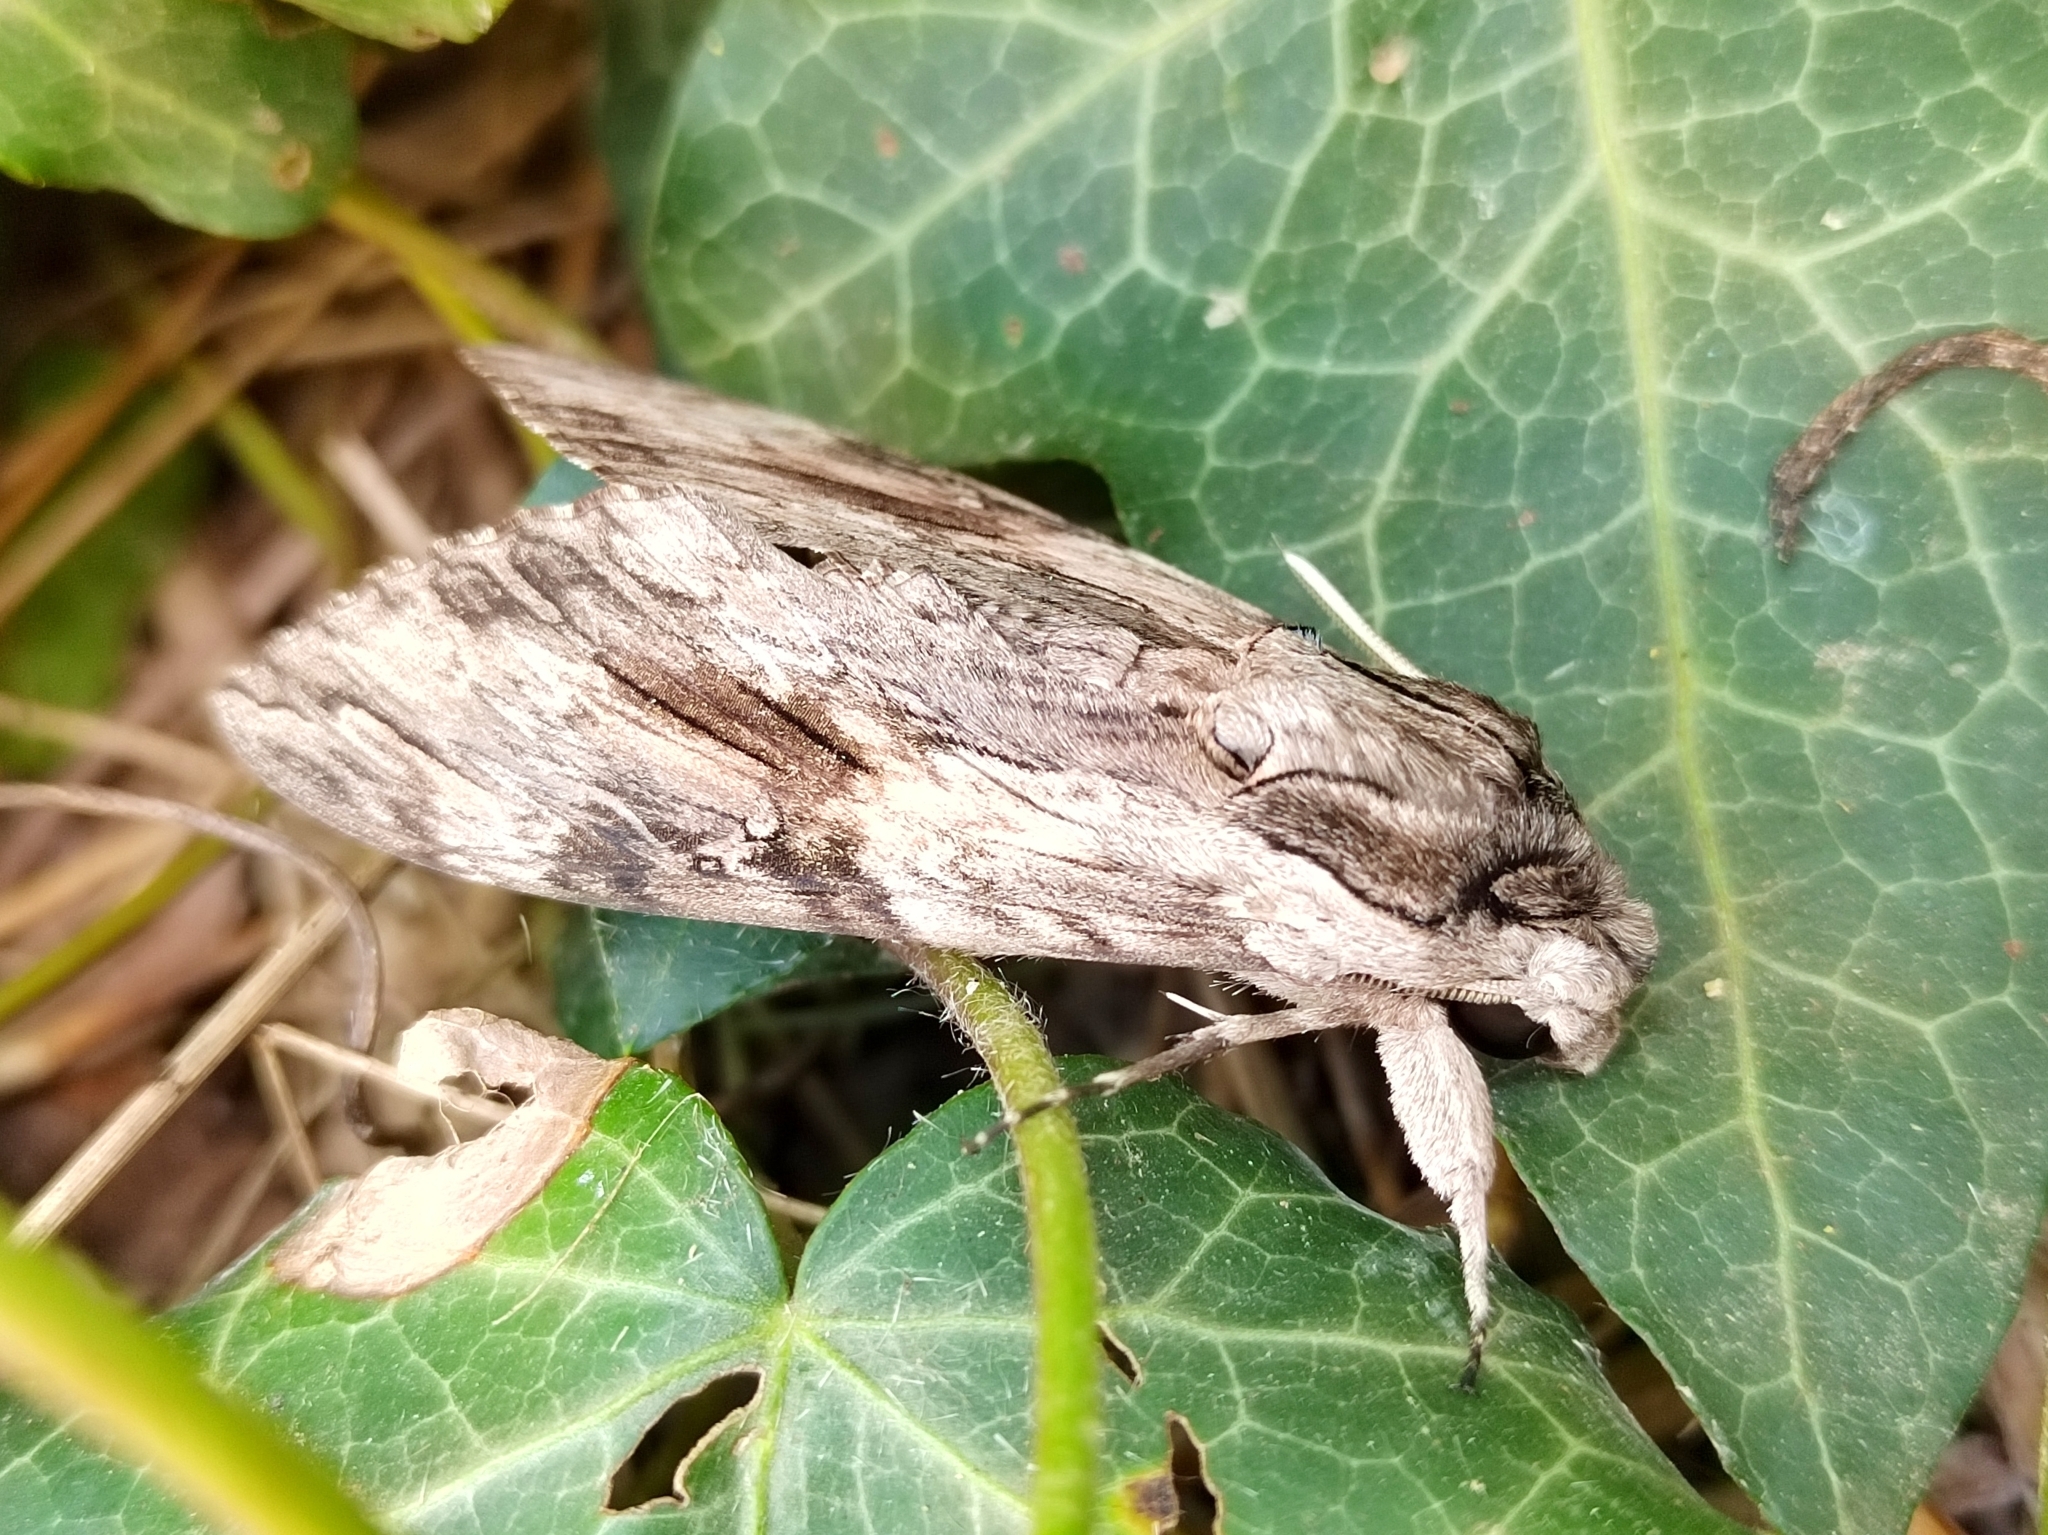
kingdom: Animalia
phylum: Arthropoda
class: Insecta
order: Lepidoptera
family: Sphingidae
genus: Agrius
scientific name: Agrius convolvuli
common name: Convolvulus hawkmoth
